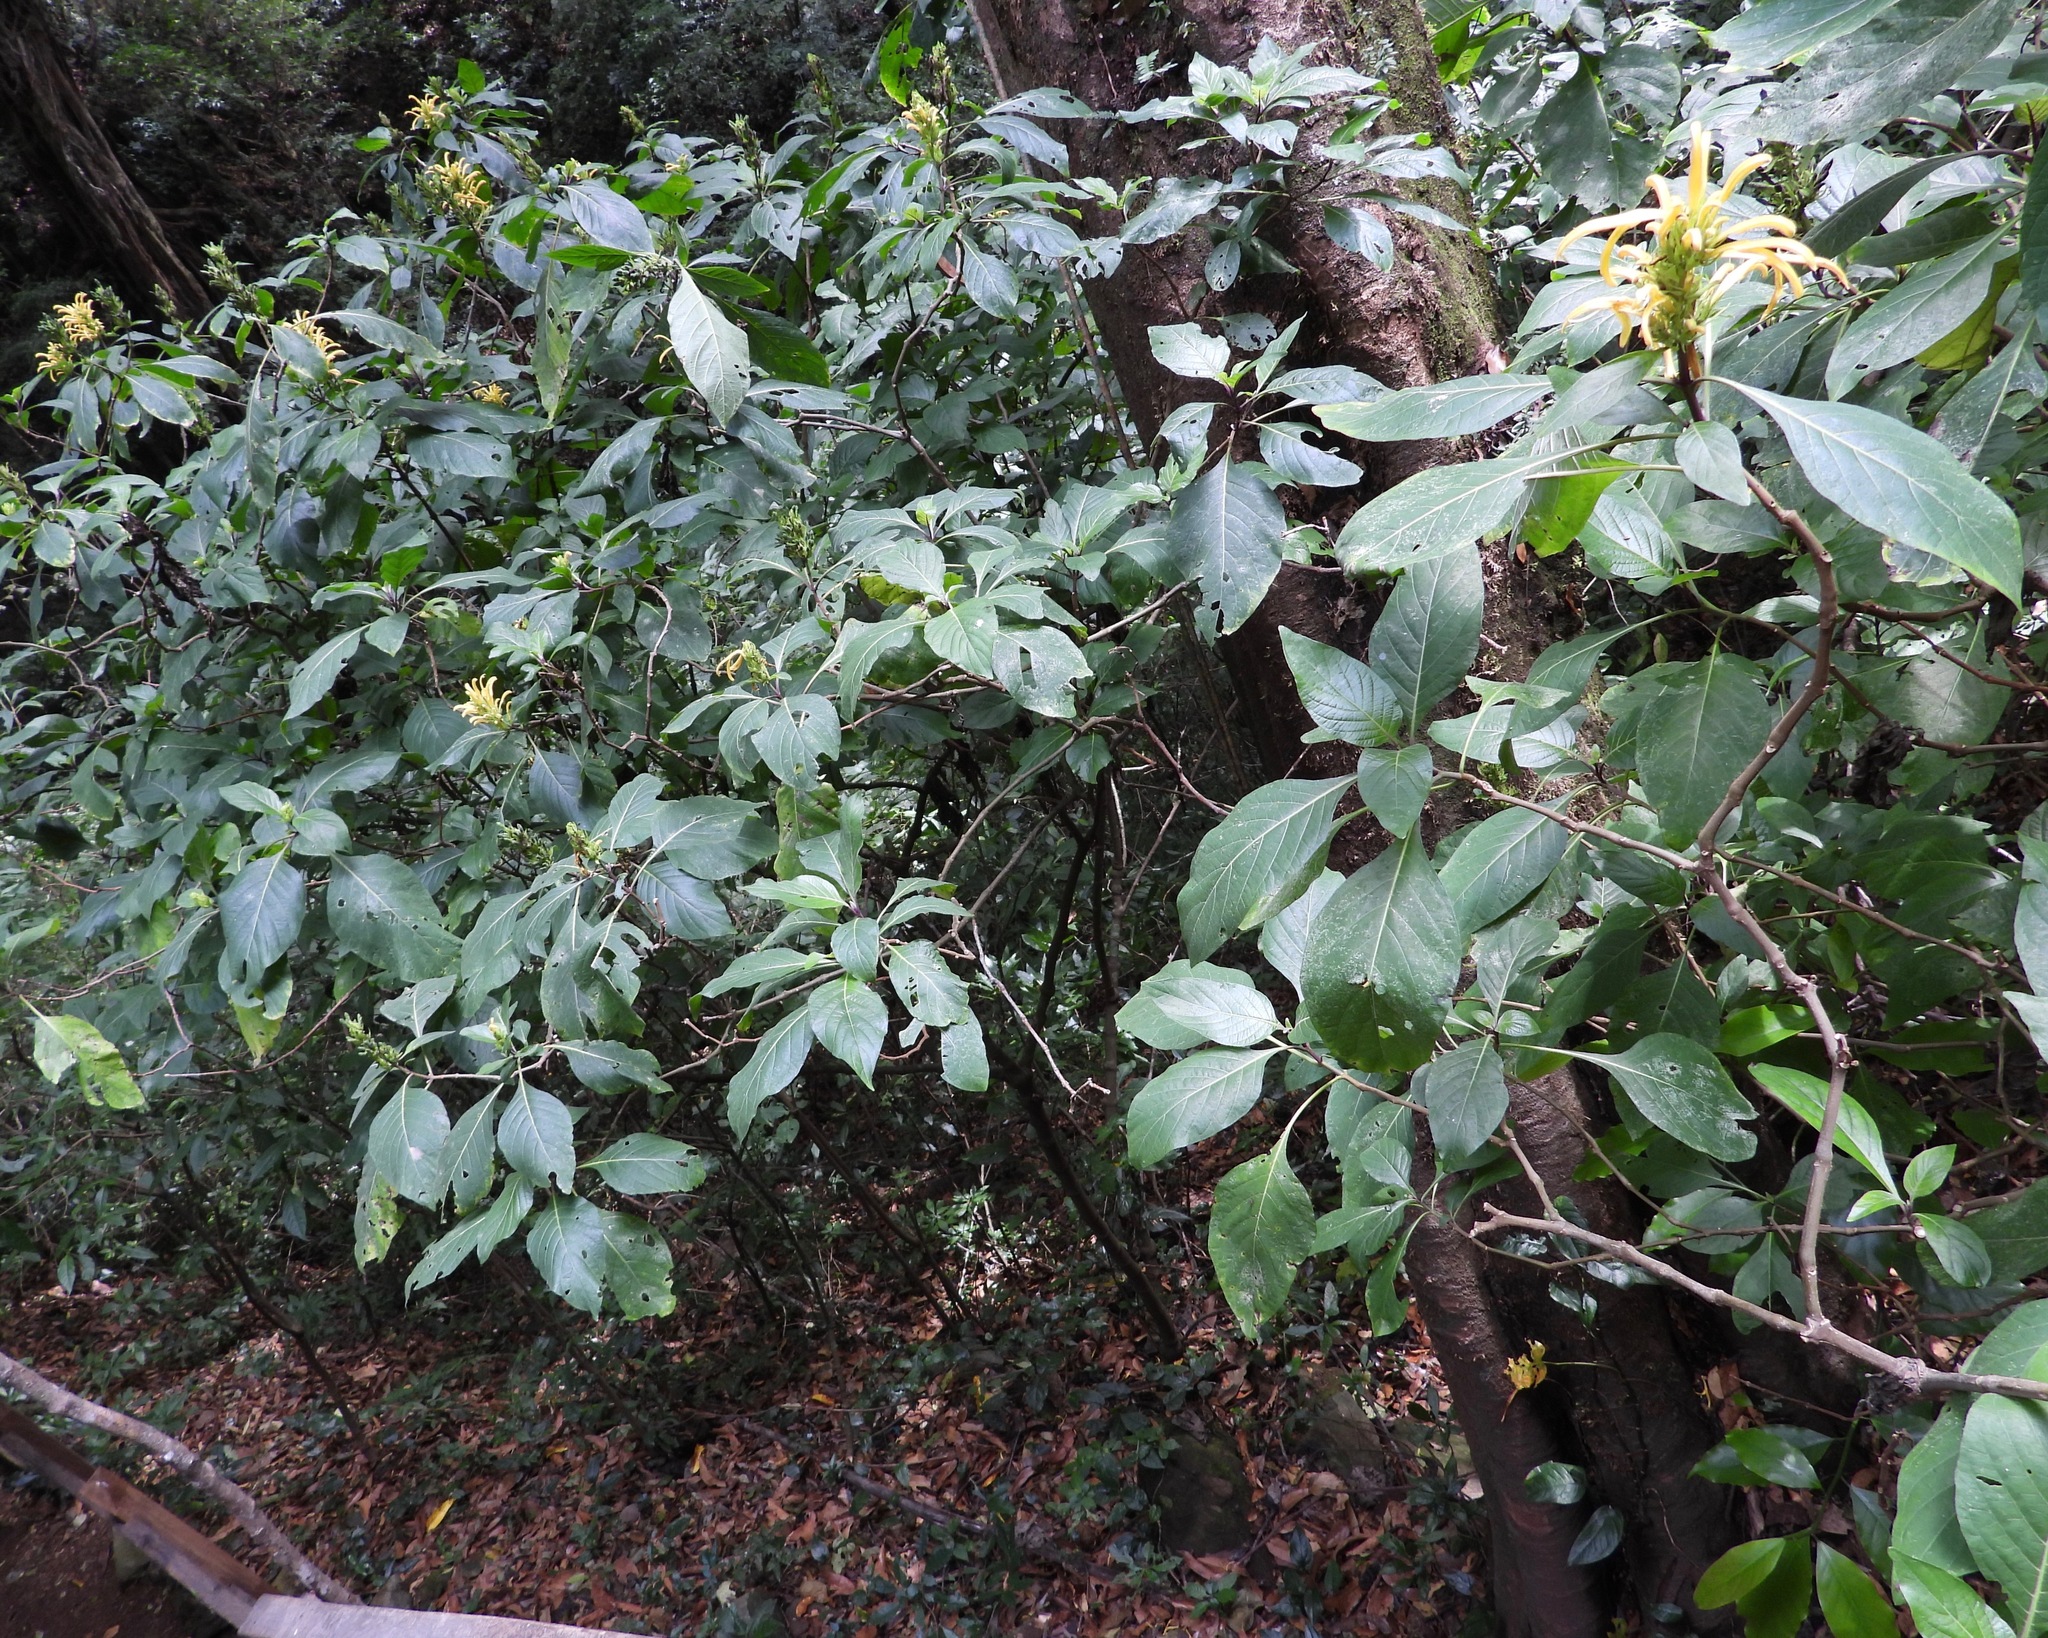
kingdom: Plantae
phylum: Tracheophyta
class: Magnoliopsida
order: Lamiales
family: Acanthaceae
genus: Justicia
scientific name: Justicia aurea
